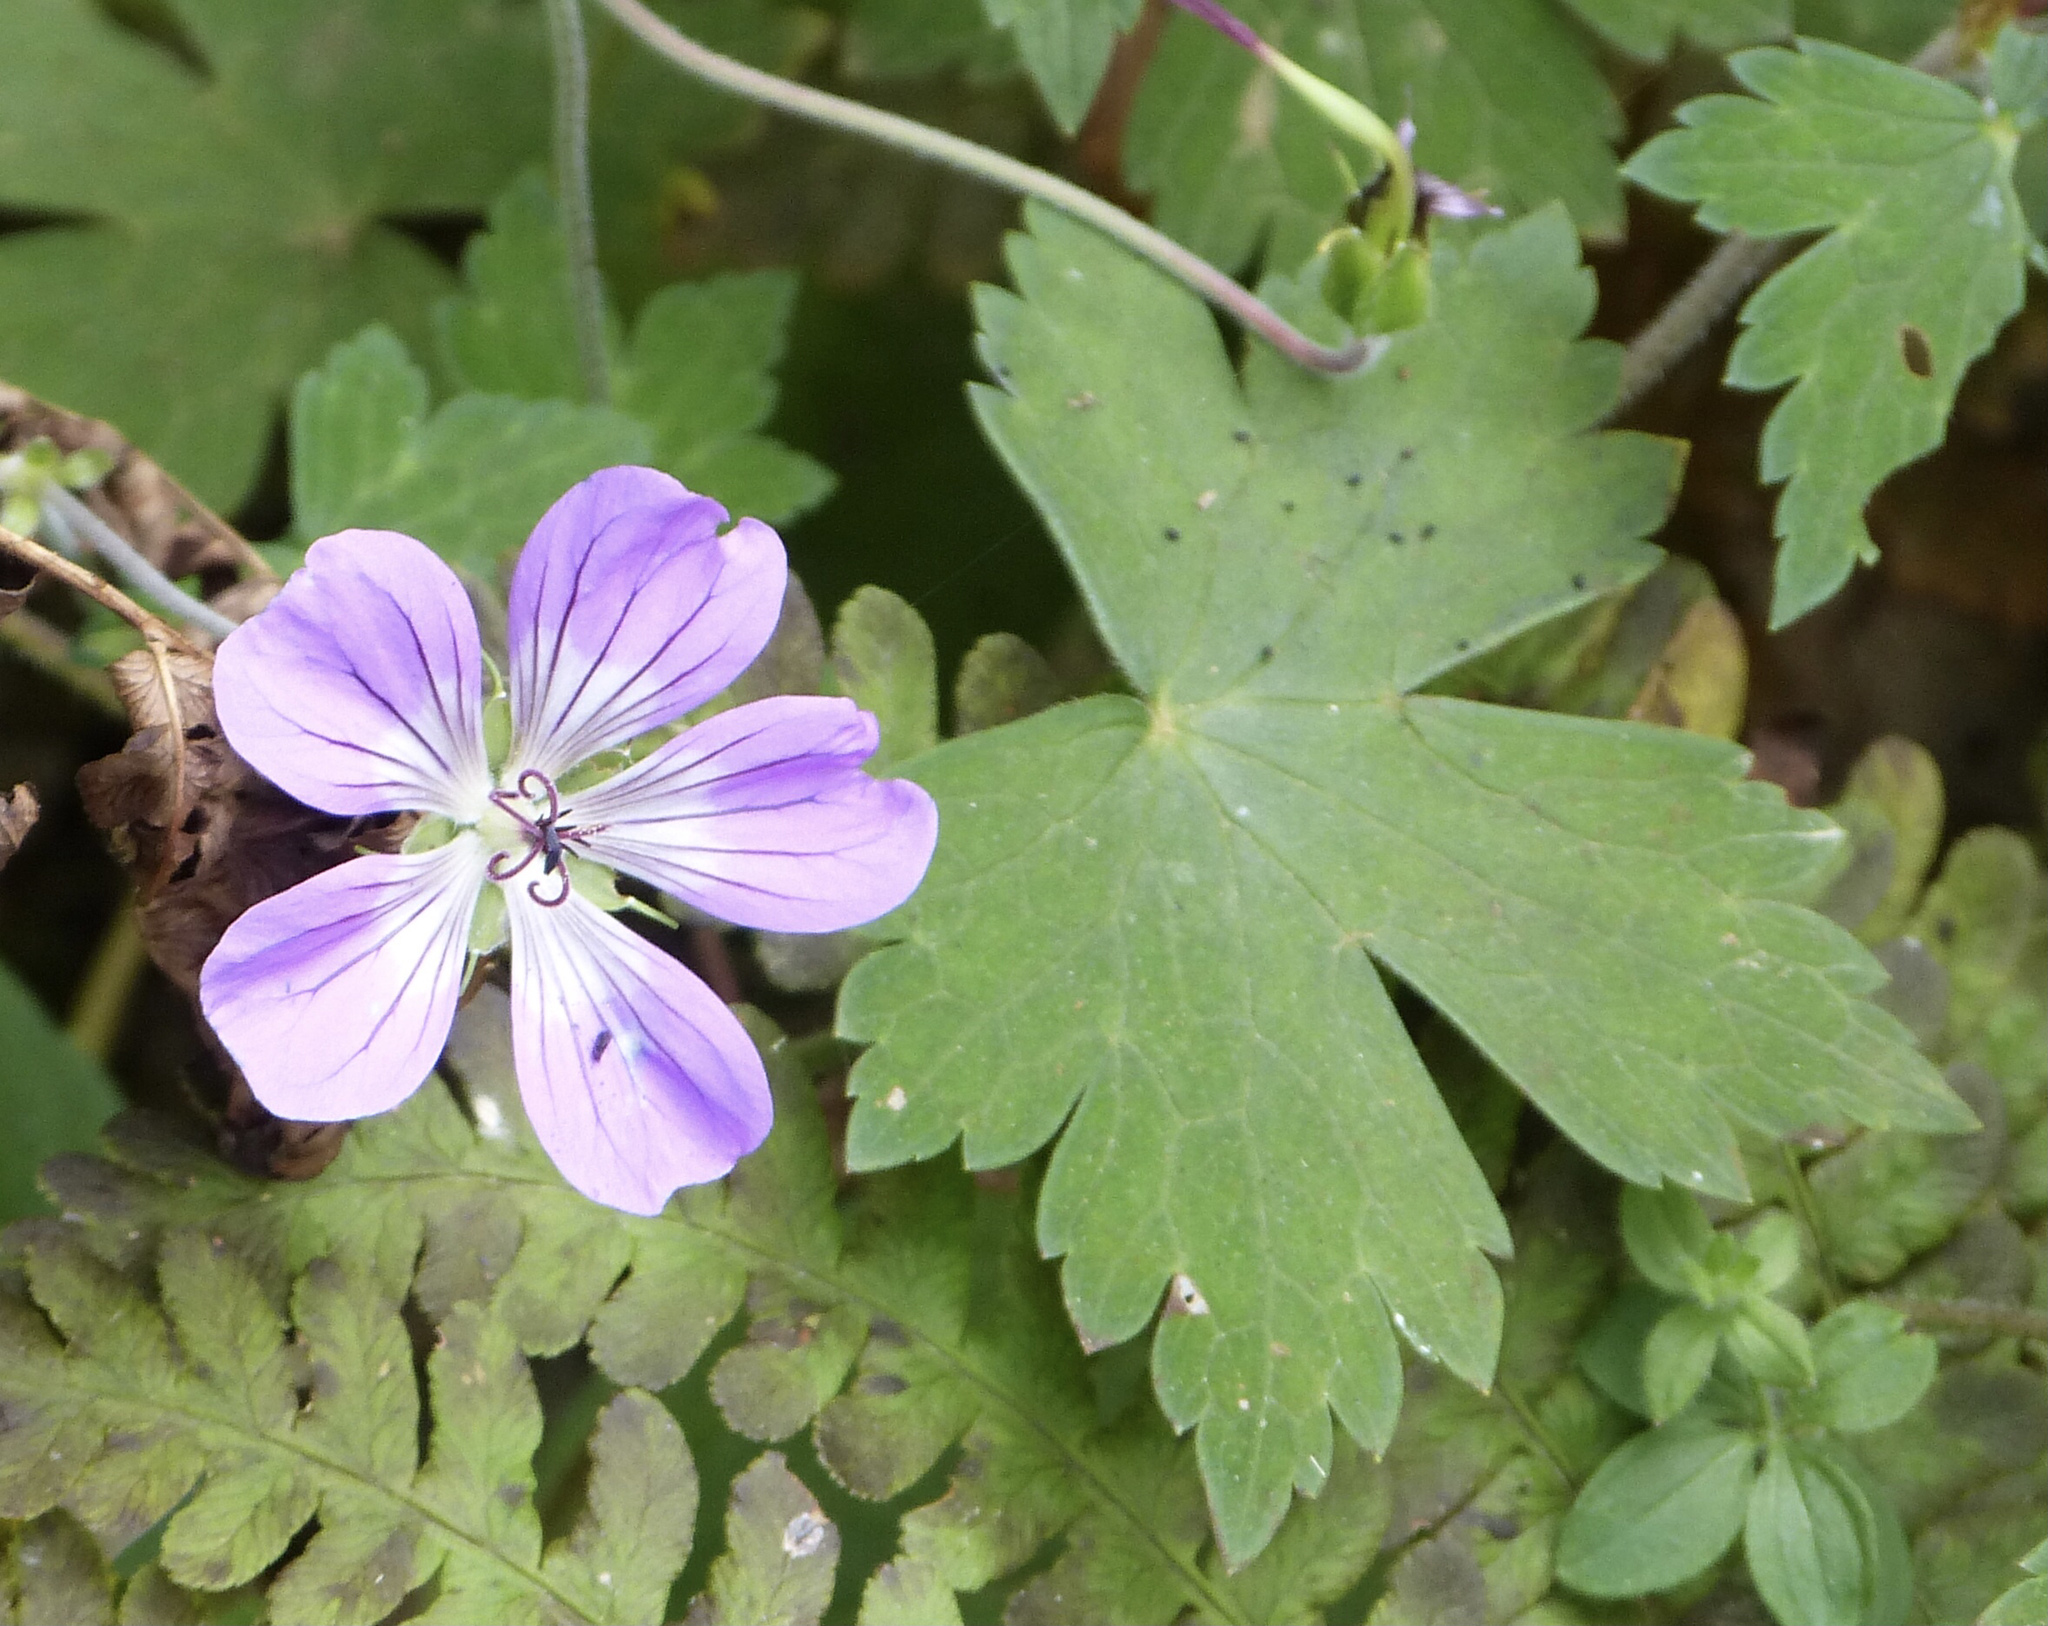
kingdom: Plantae
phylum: Tracheophyta
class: Magnoliopsida
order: Geraniales
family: Geraniaceae
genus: Geranium
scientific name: Geranium nepalense
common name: Nepalese crane's-bill
